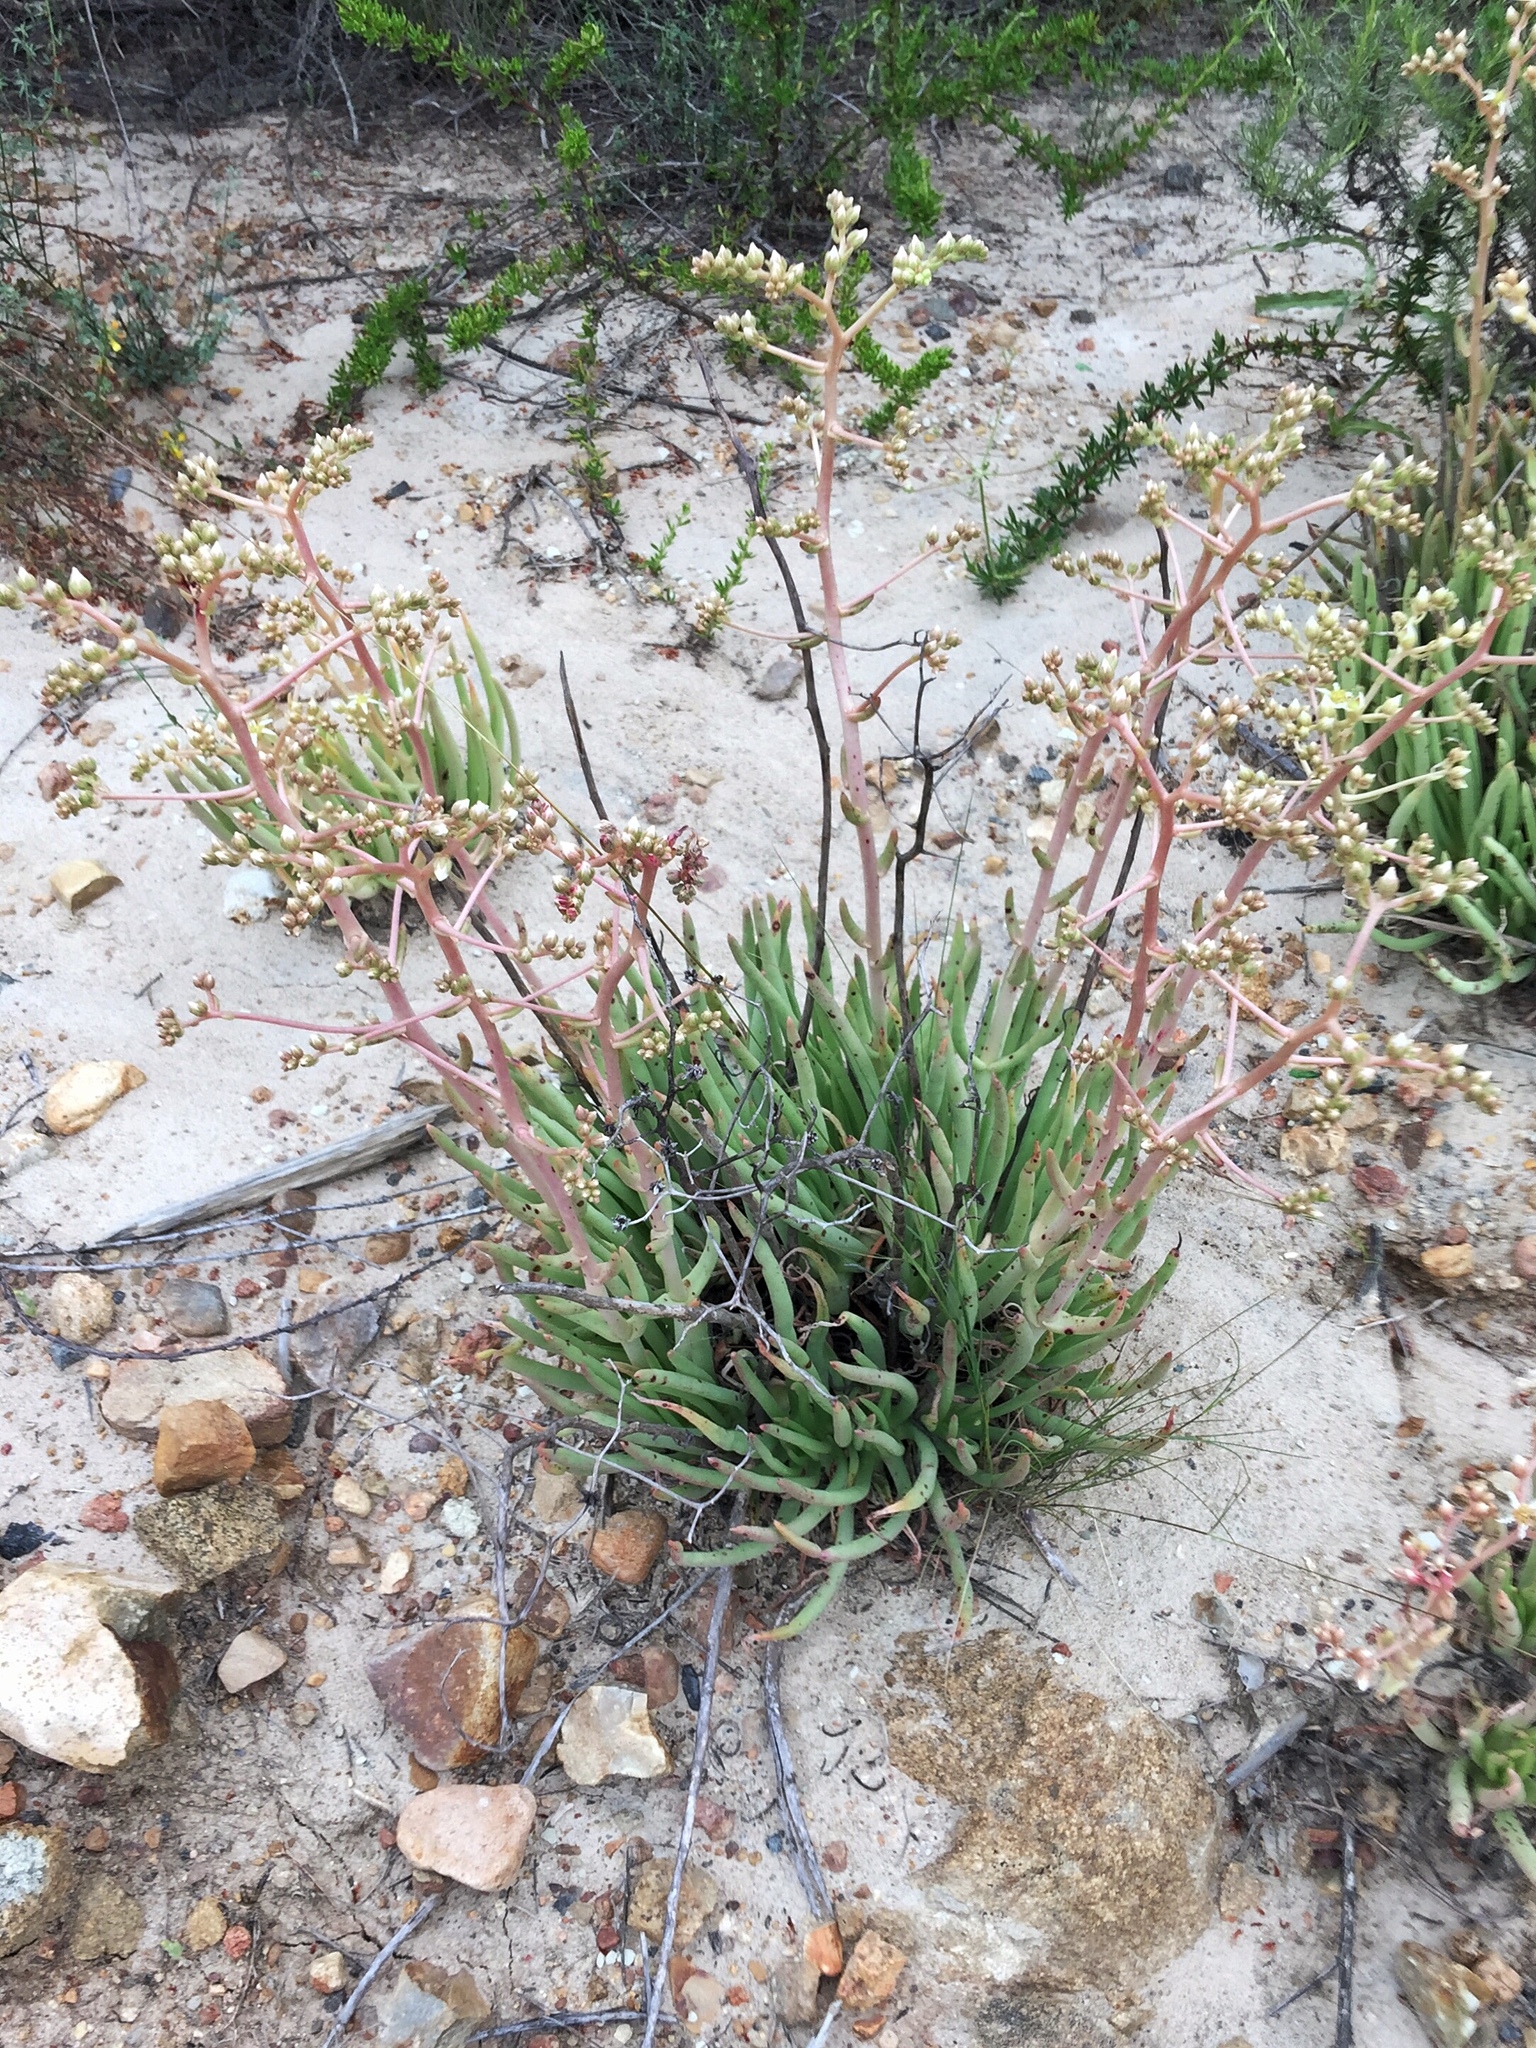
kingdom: Plantae
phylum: Tracheophyta
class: Magnoliopsida
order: Saxifragales
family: Crassulaceae
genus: Dudleya
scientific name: Dudleya edulis
